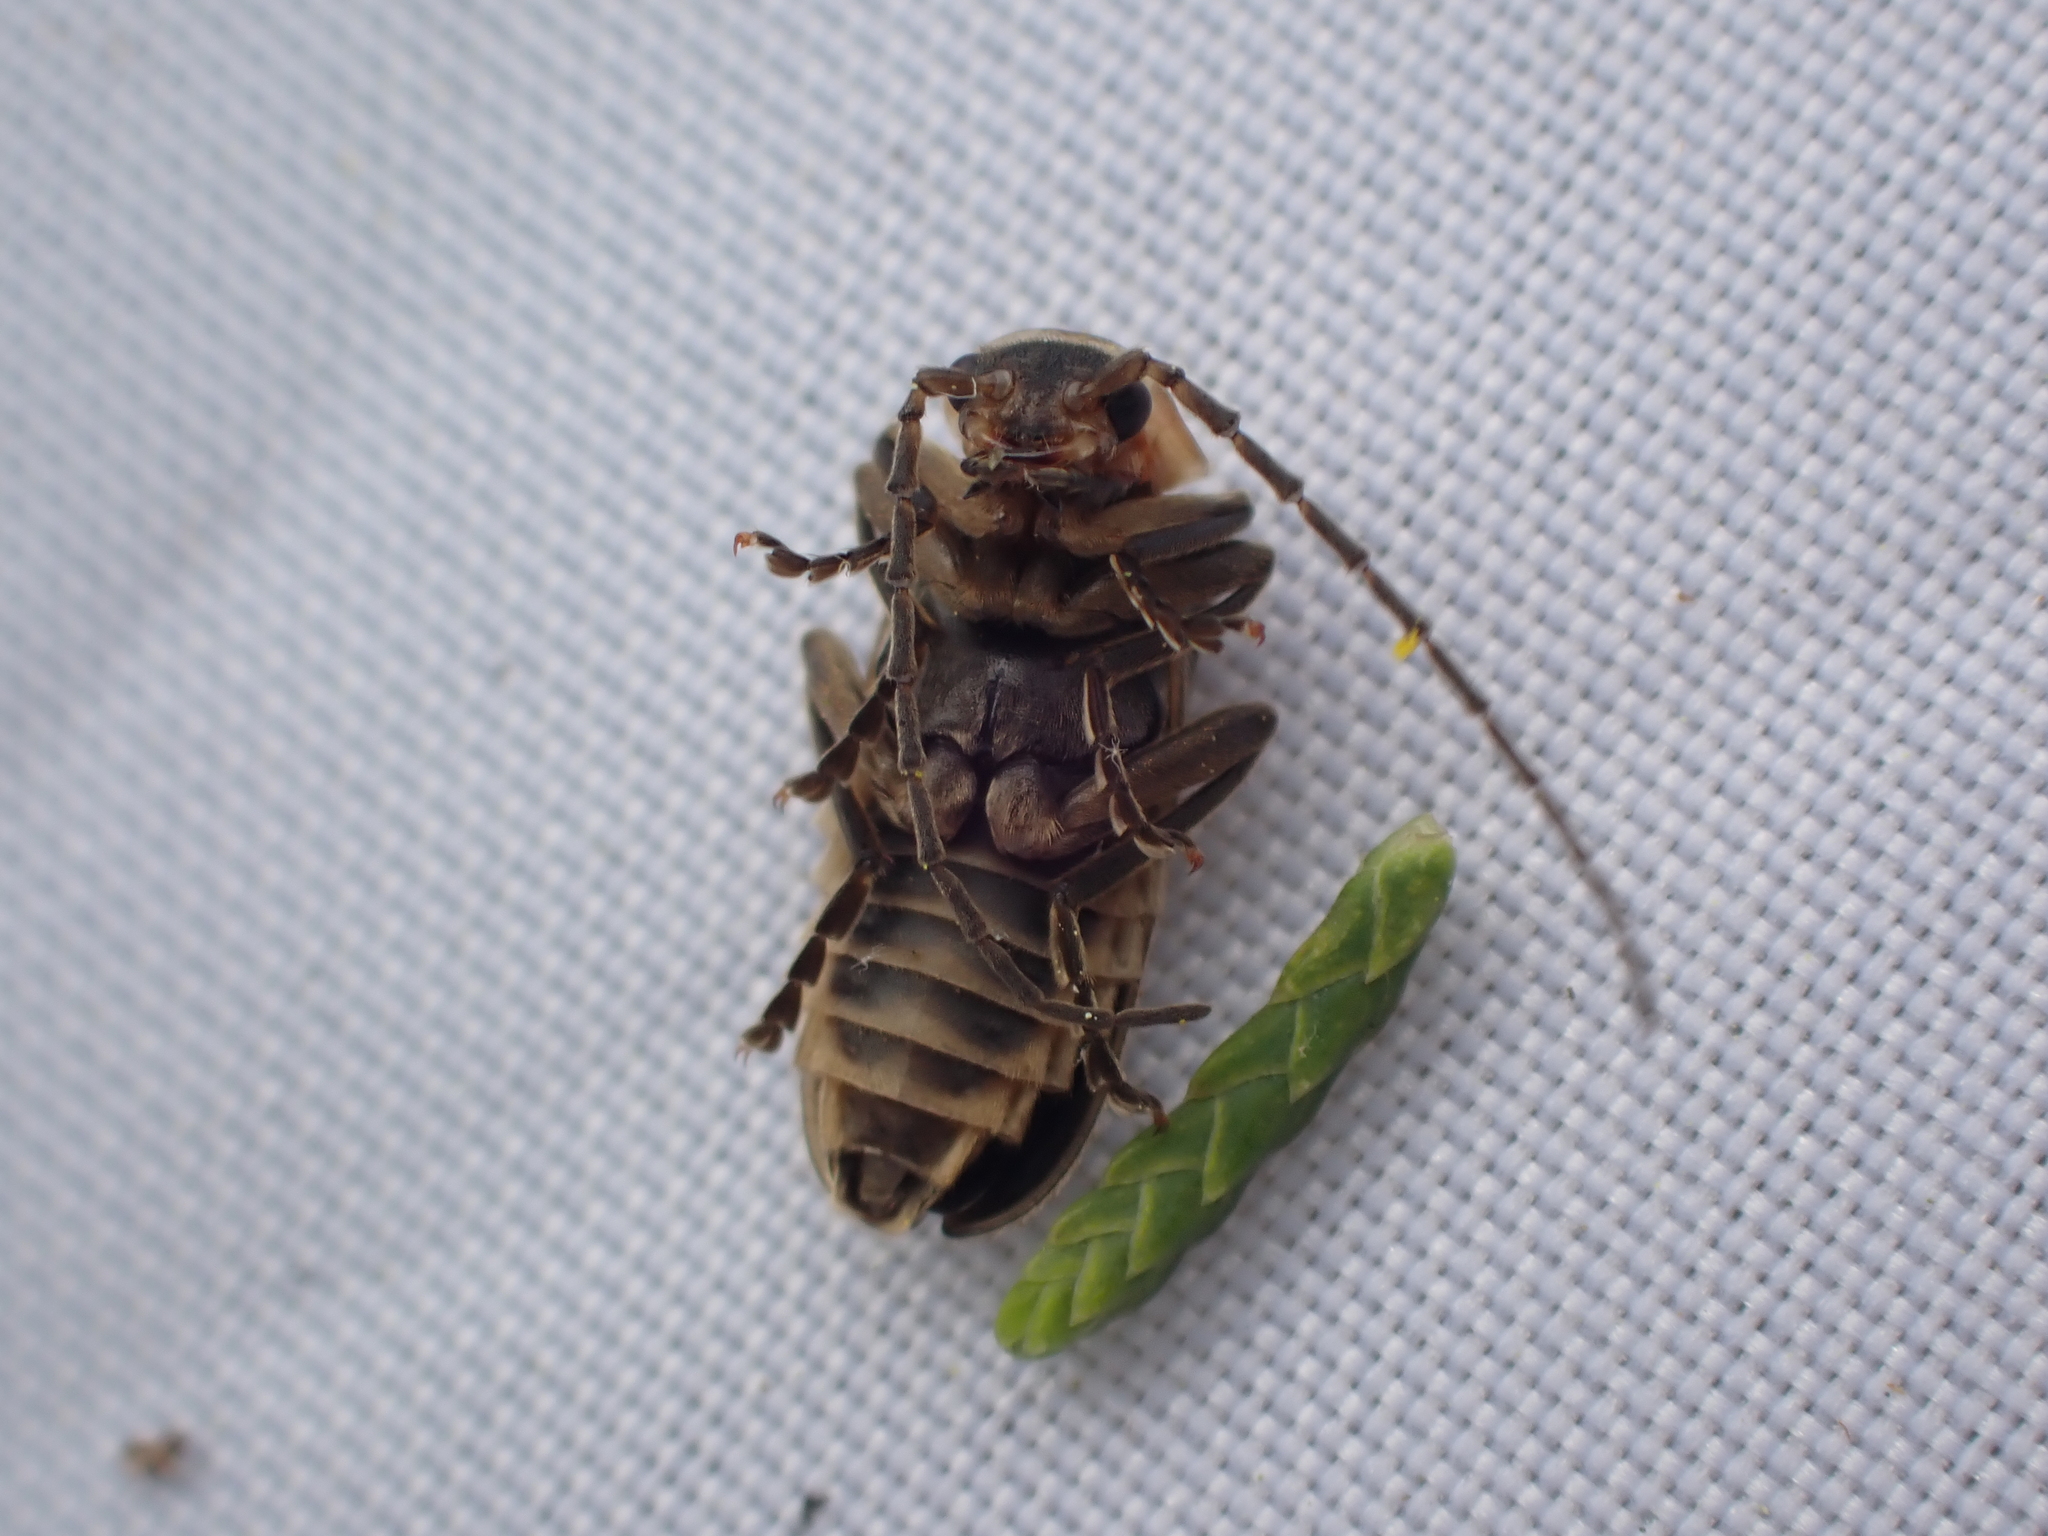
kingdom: Animalia
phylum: Arthropoda
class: Insecta
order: Coleoptera
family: Cantharidae
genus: Atalantycha
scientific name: Atalantycha dentigera
